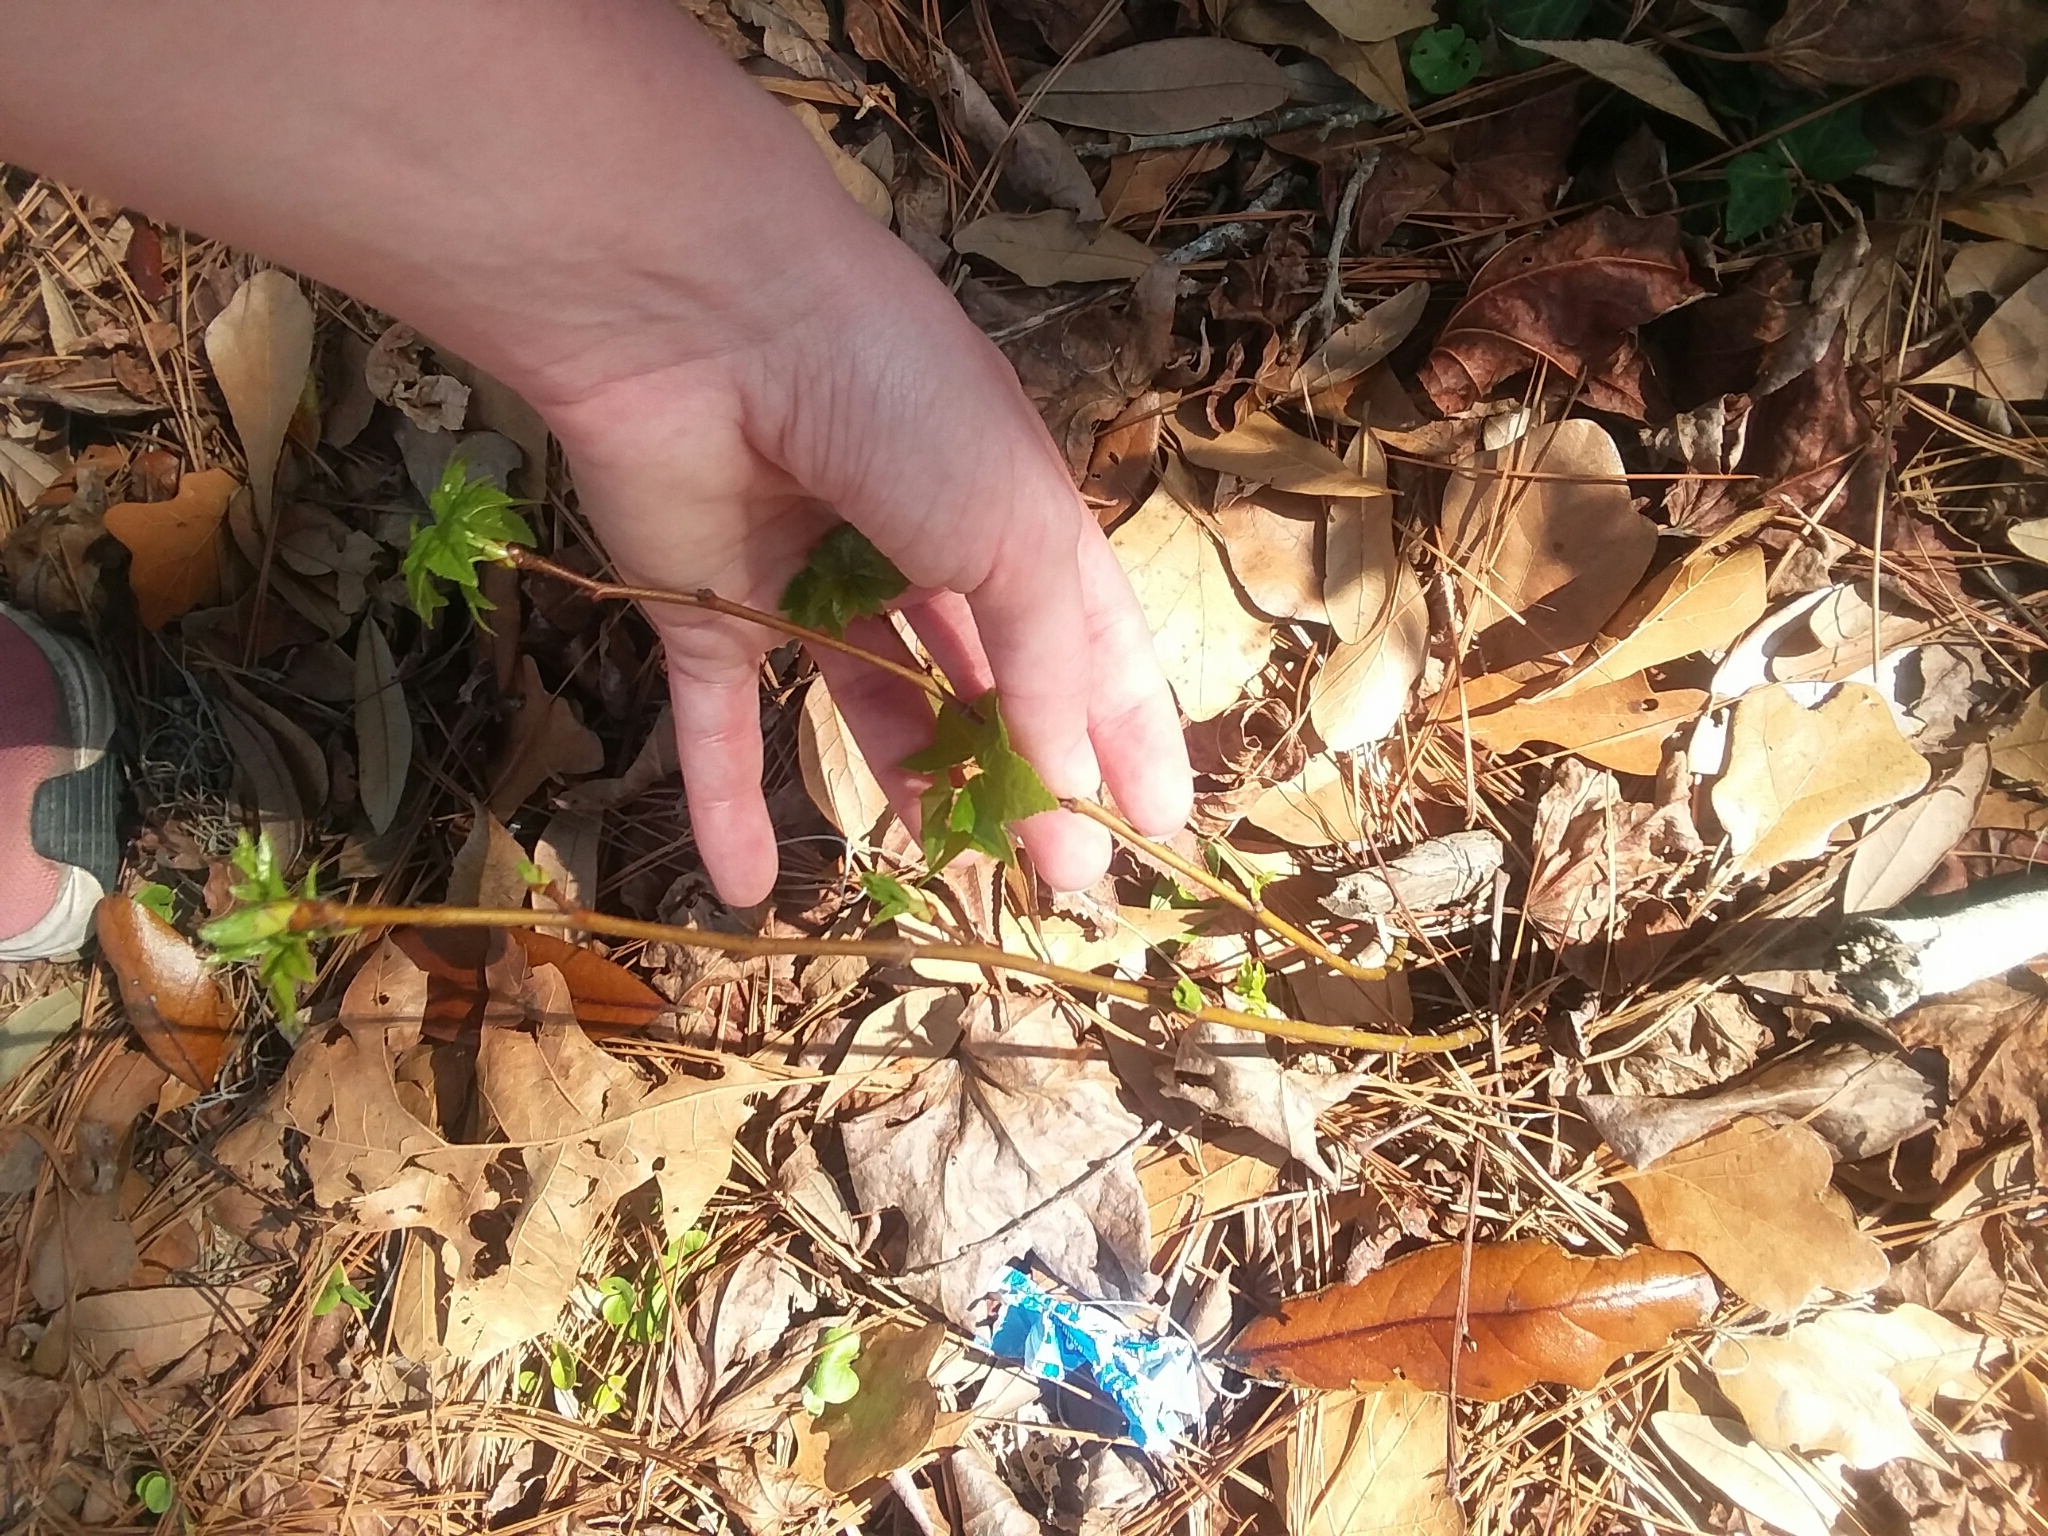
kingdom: Plantae
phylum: Tracheophyta
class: Magnoliopsida
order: Saxifragales
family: Altingiaceae
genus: Liquidambar
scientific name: Liquidambar styraciflua
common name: Sweet gum
